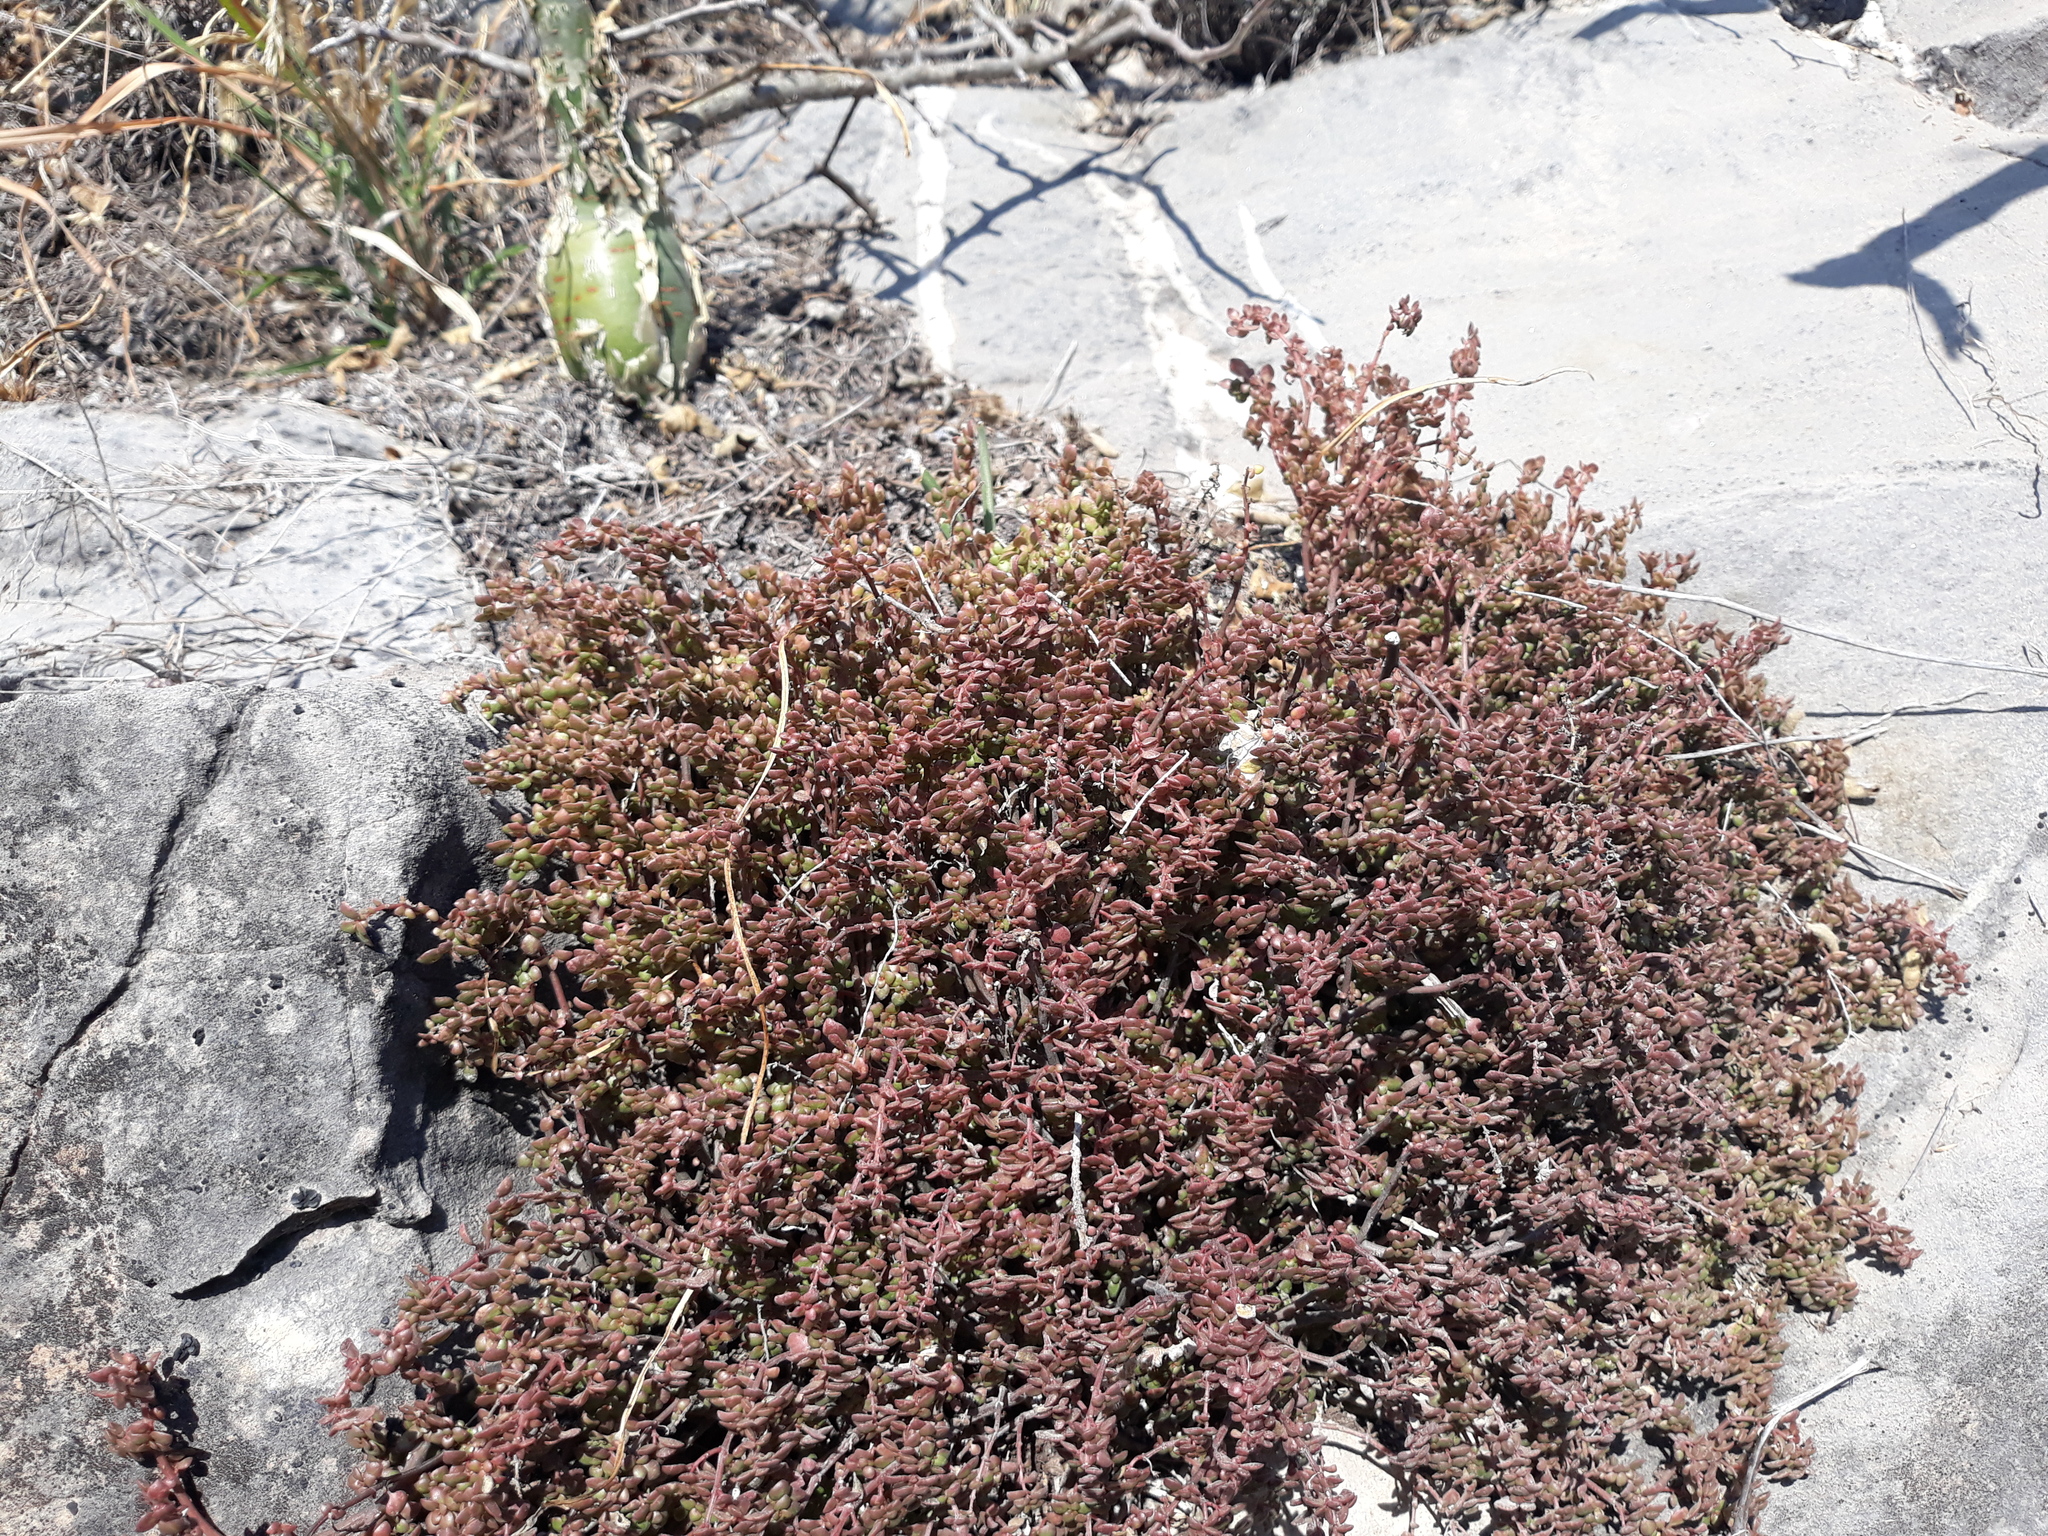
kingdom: Plantae
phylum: Tracheophyta
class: Magnoliopsida
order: Rosales
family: Urticaceae
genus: Pilea
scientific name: Pilea microphylla
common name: Artillery-plant
